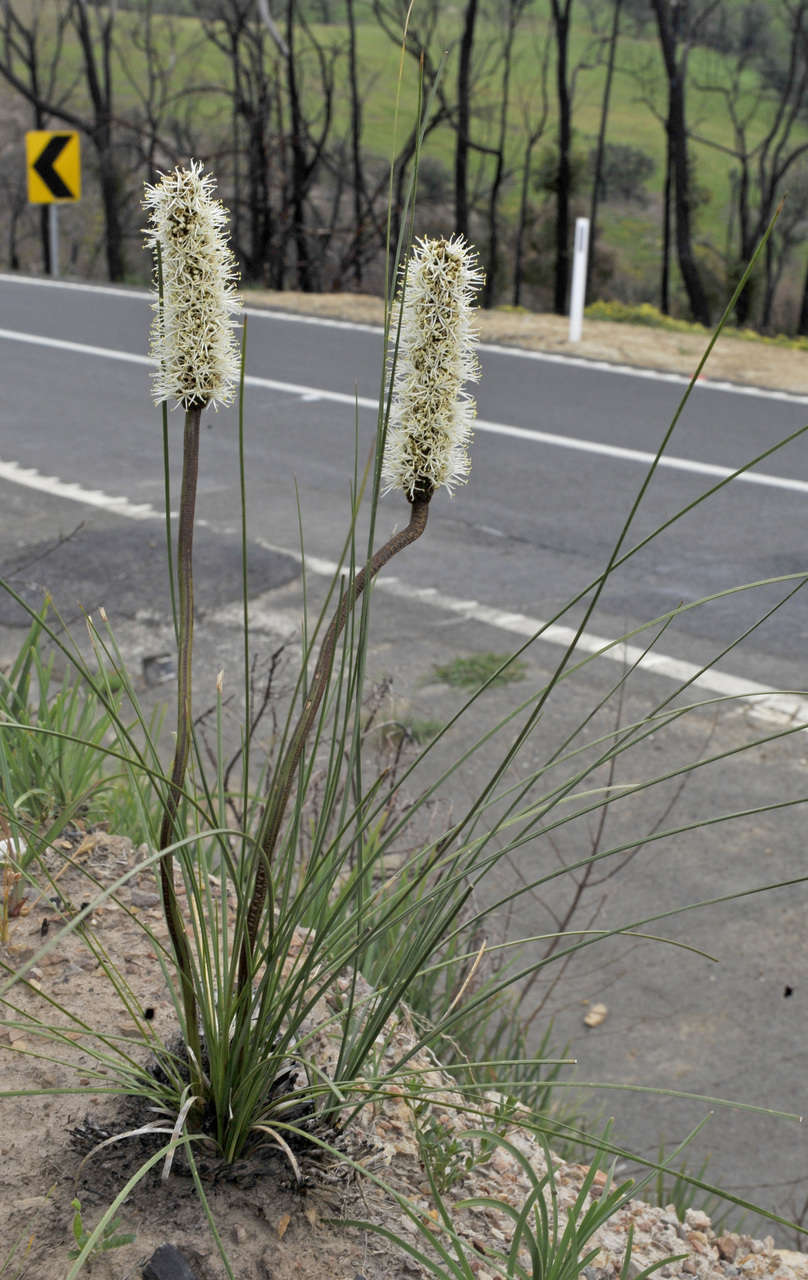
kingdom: Plantae
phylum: Tracheophyta
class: Liliopsida
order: Asparagales
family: Asphodelaceae
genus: Xanthorrhoea
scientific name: Xanthorrhoea minor
